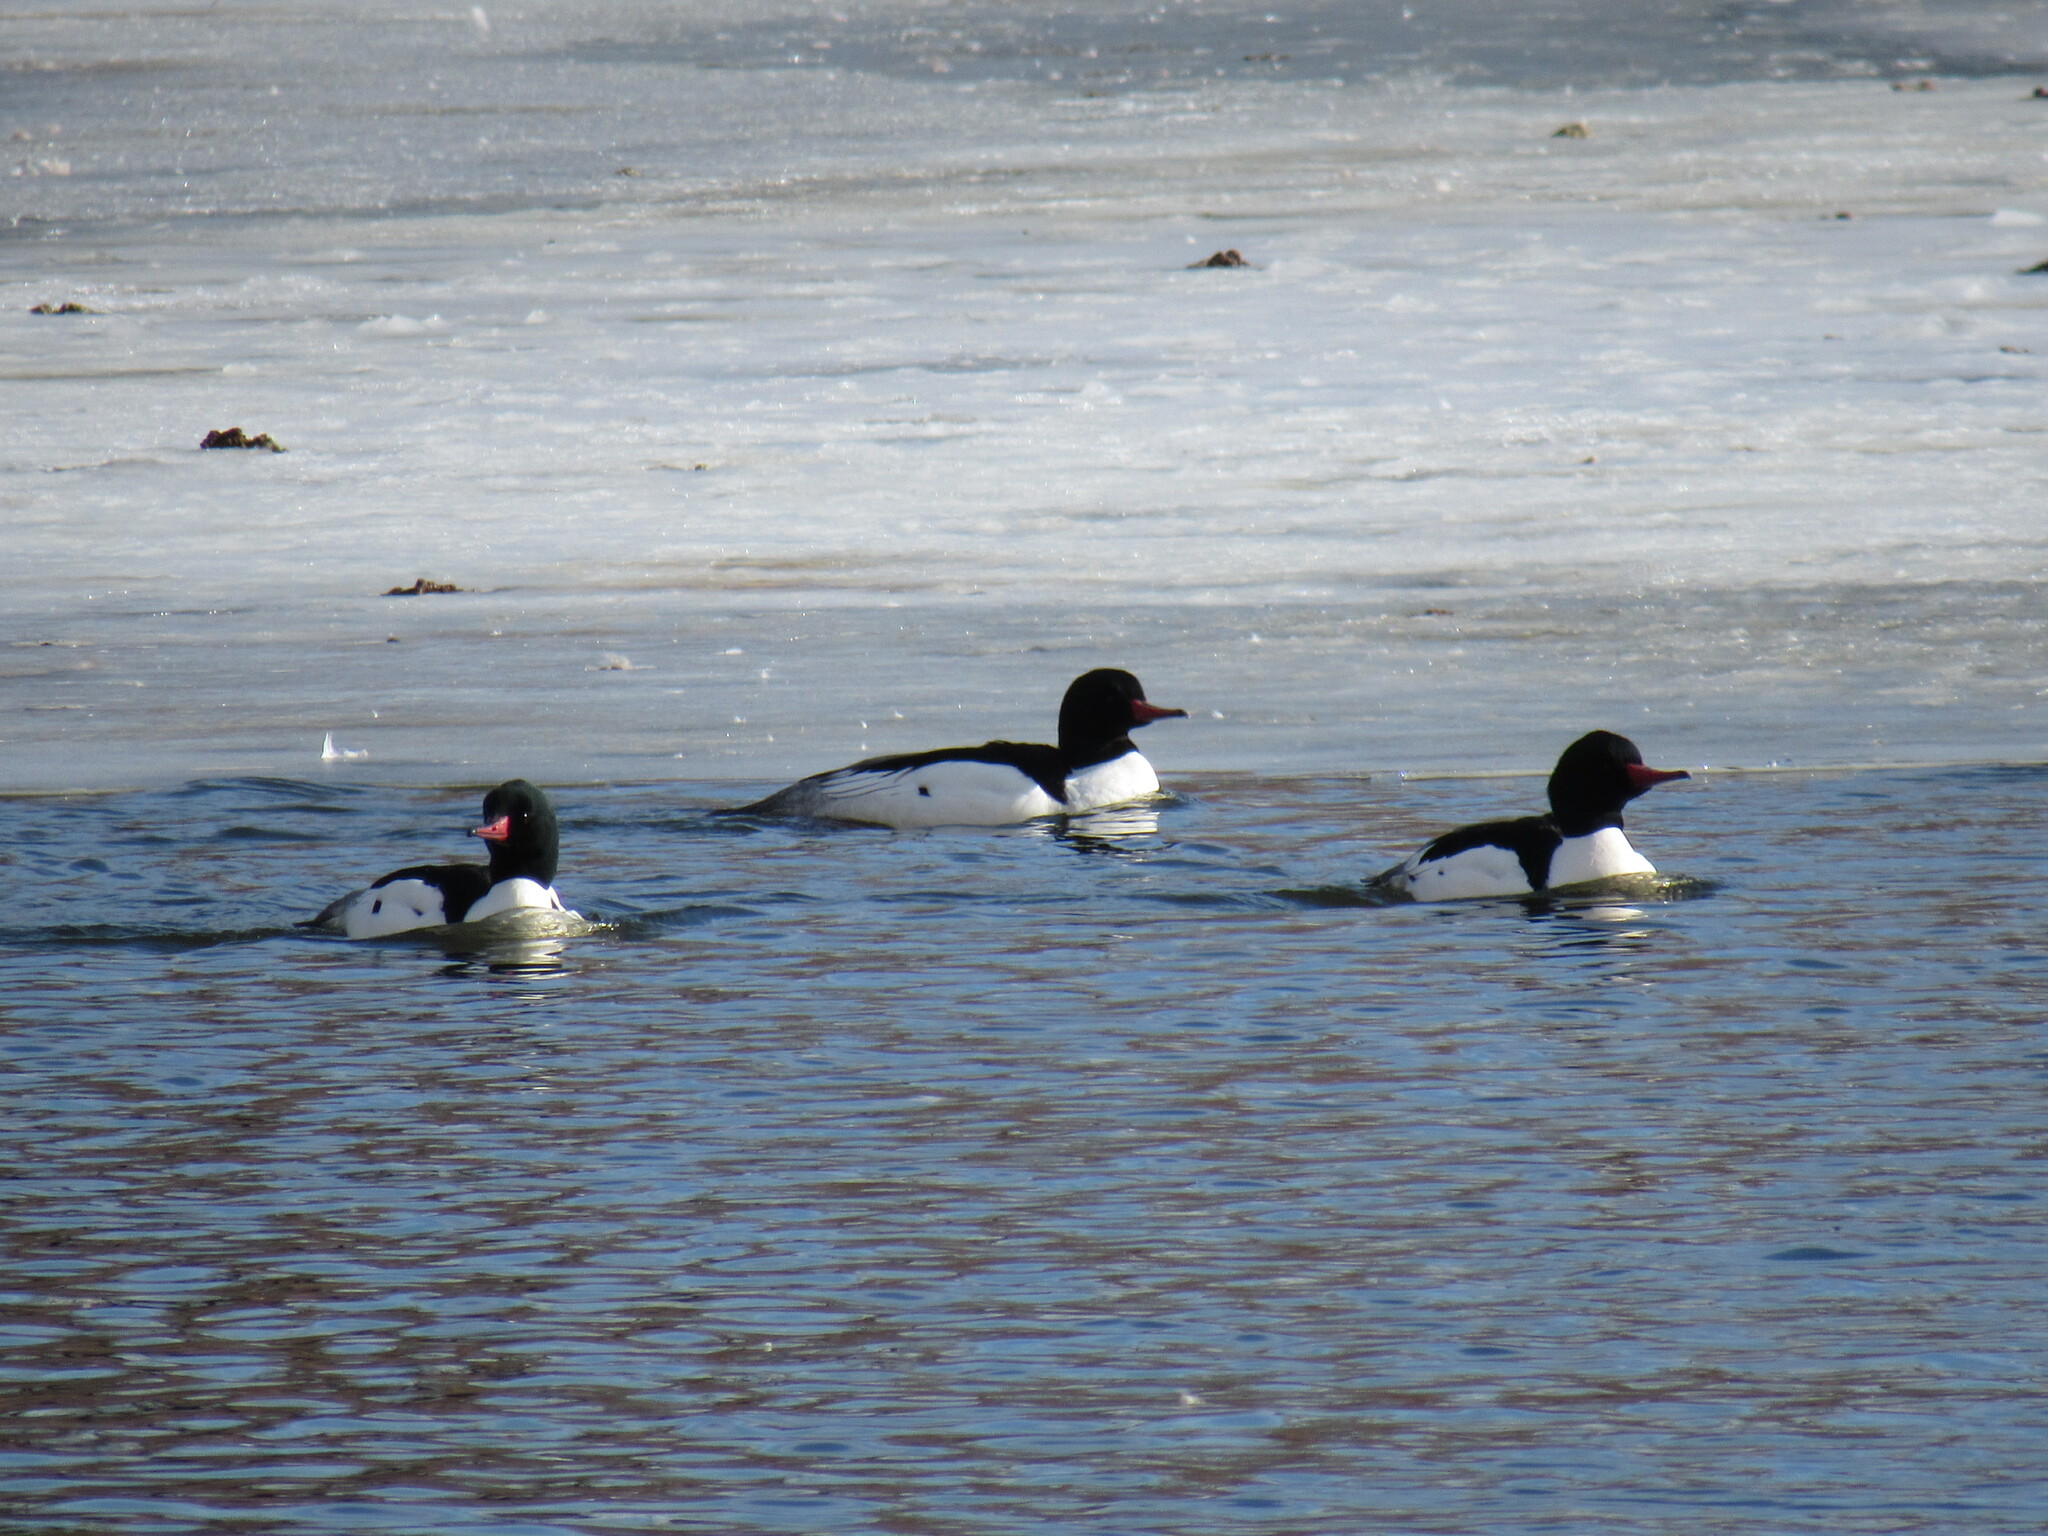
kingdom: Animalia
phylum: Chordata
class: Aves
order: Anseriformes
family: Anatidae
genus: Mergus
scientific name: Mergus merganser
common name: Common merganser
